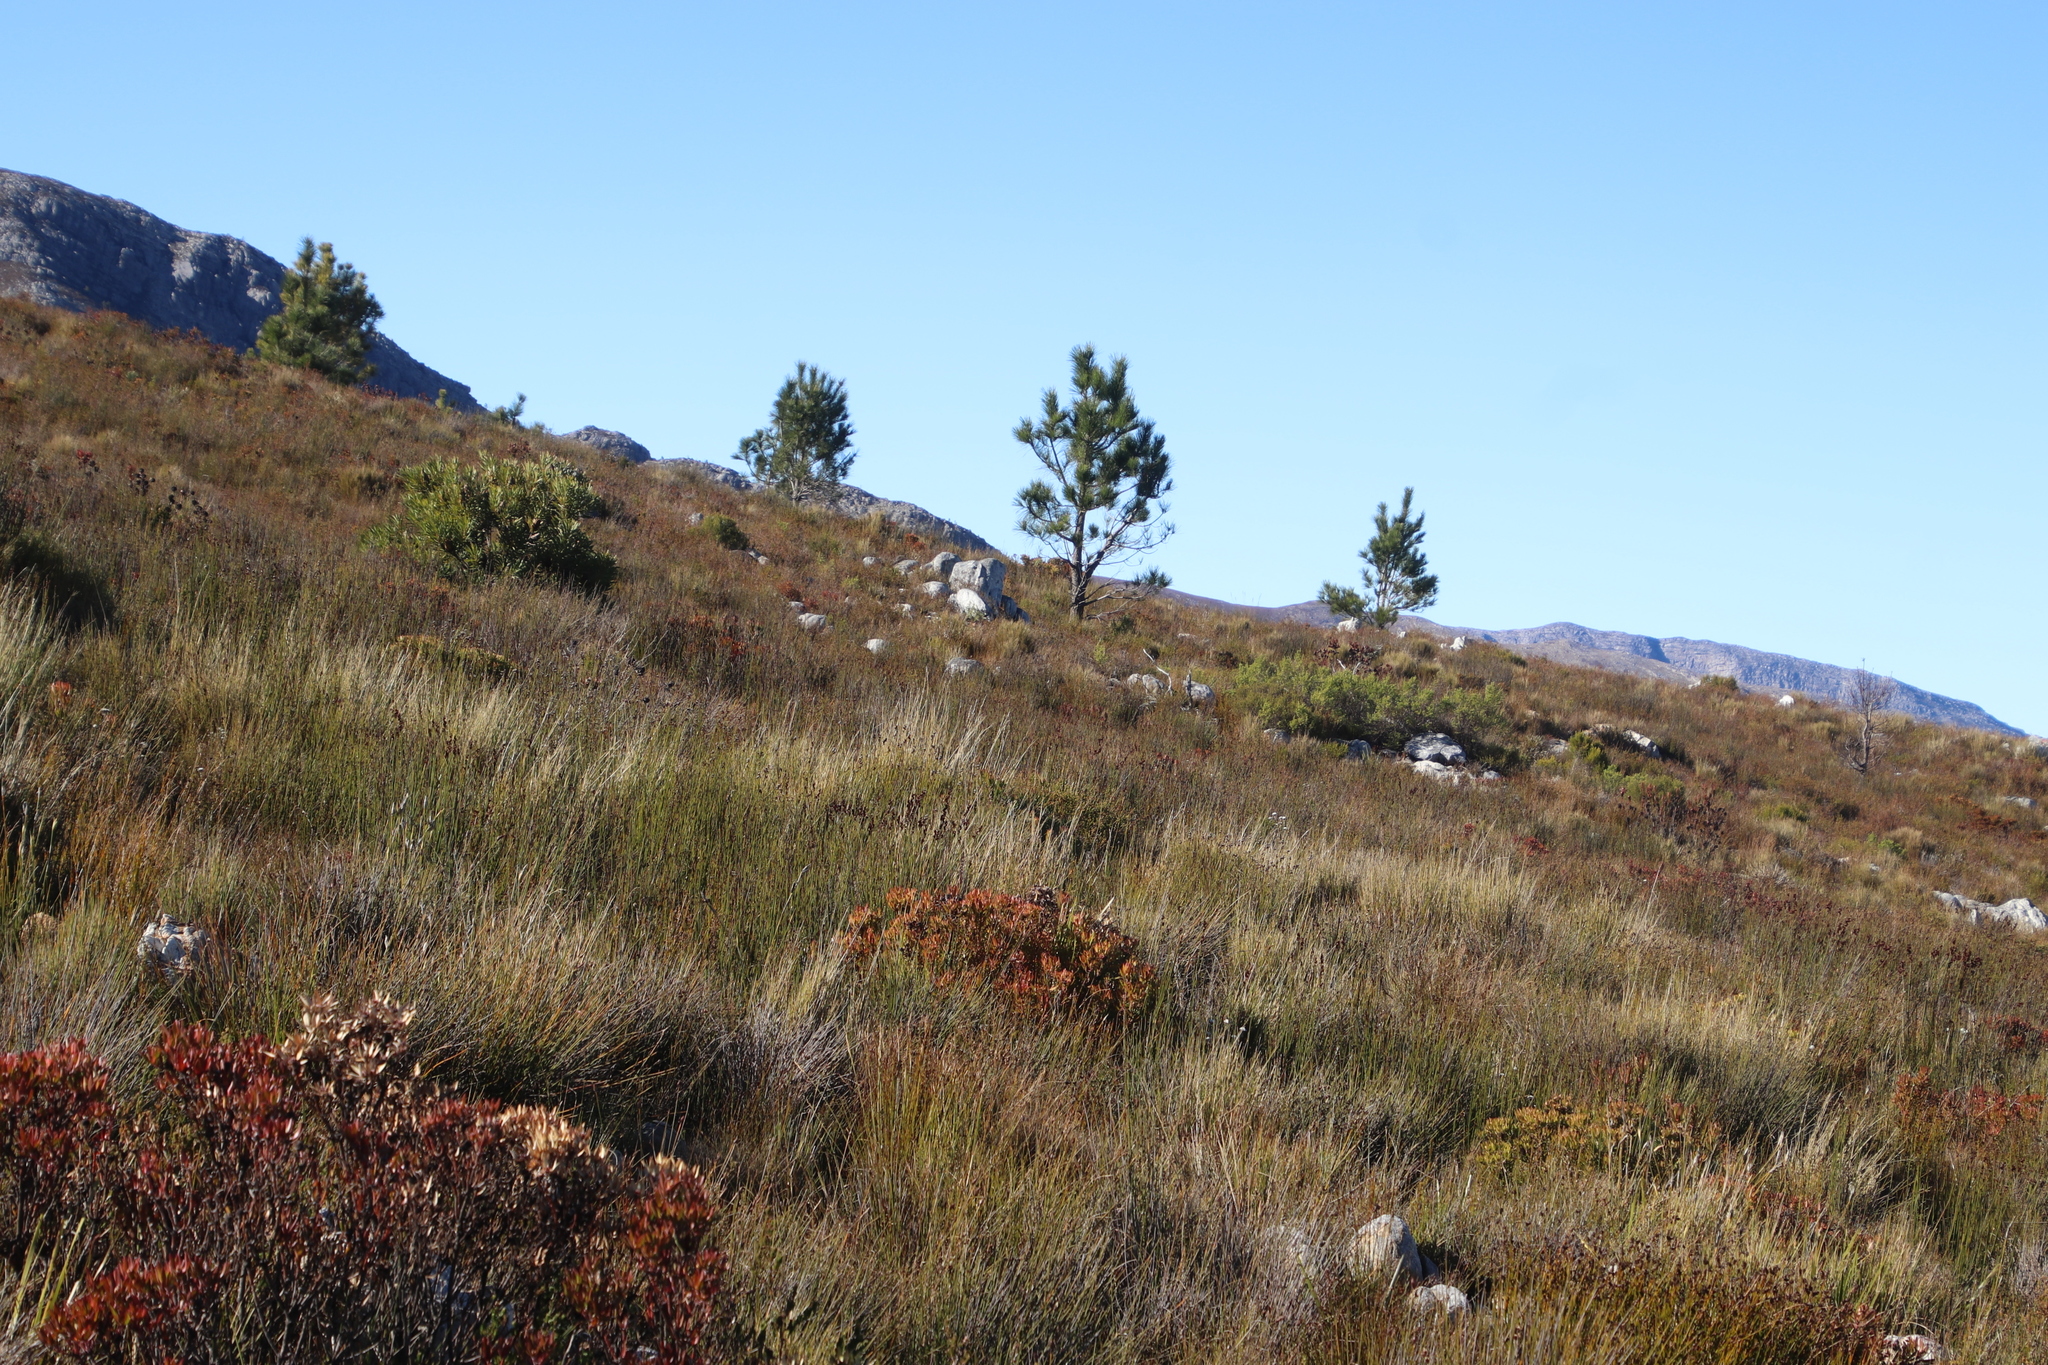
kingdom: Plantae
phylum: Tracheophyta
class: Pinopsida
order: Pinales
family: Pinaceae
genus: Pinus
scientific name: Pinus pinaster
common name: Maritime pine
